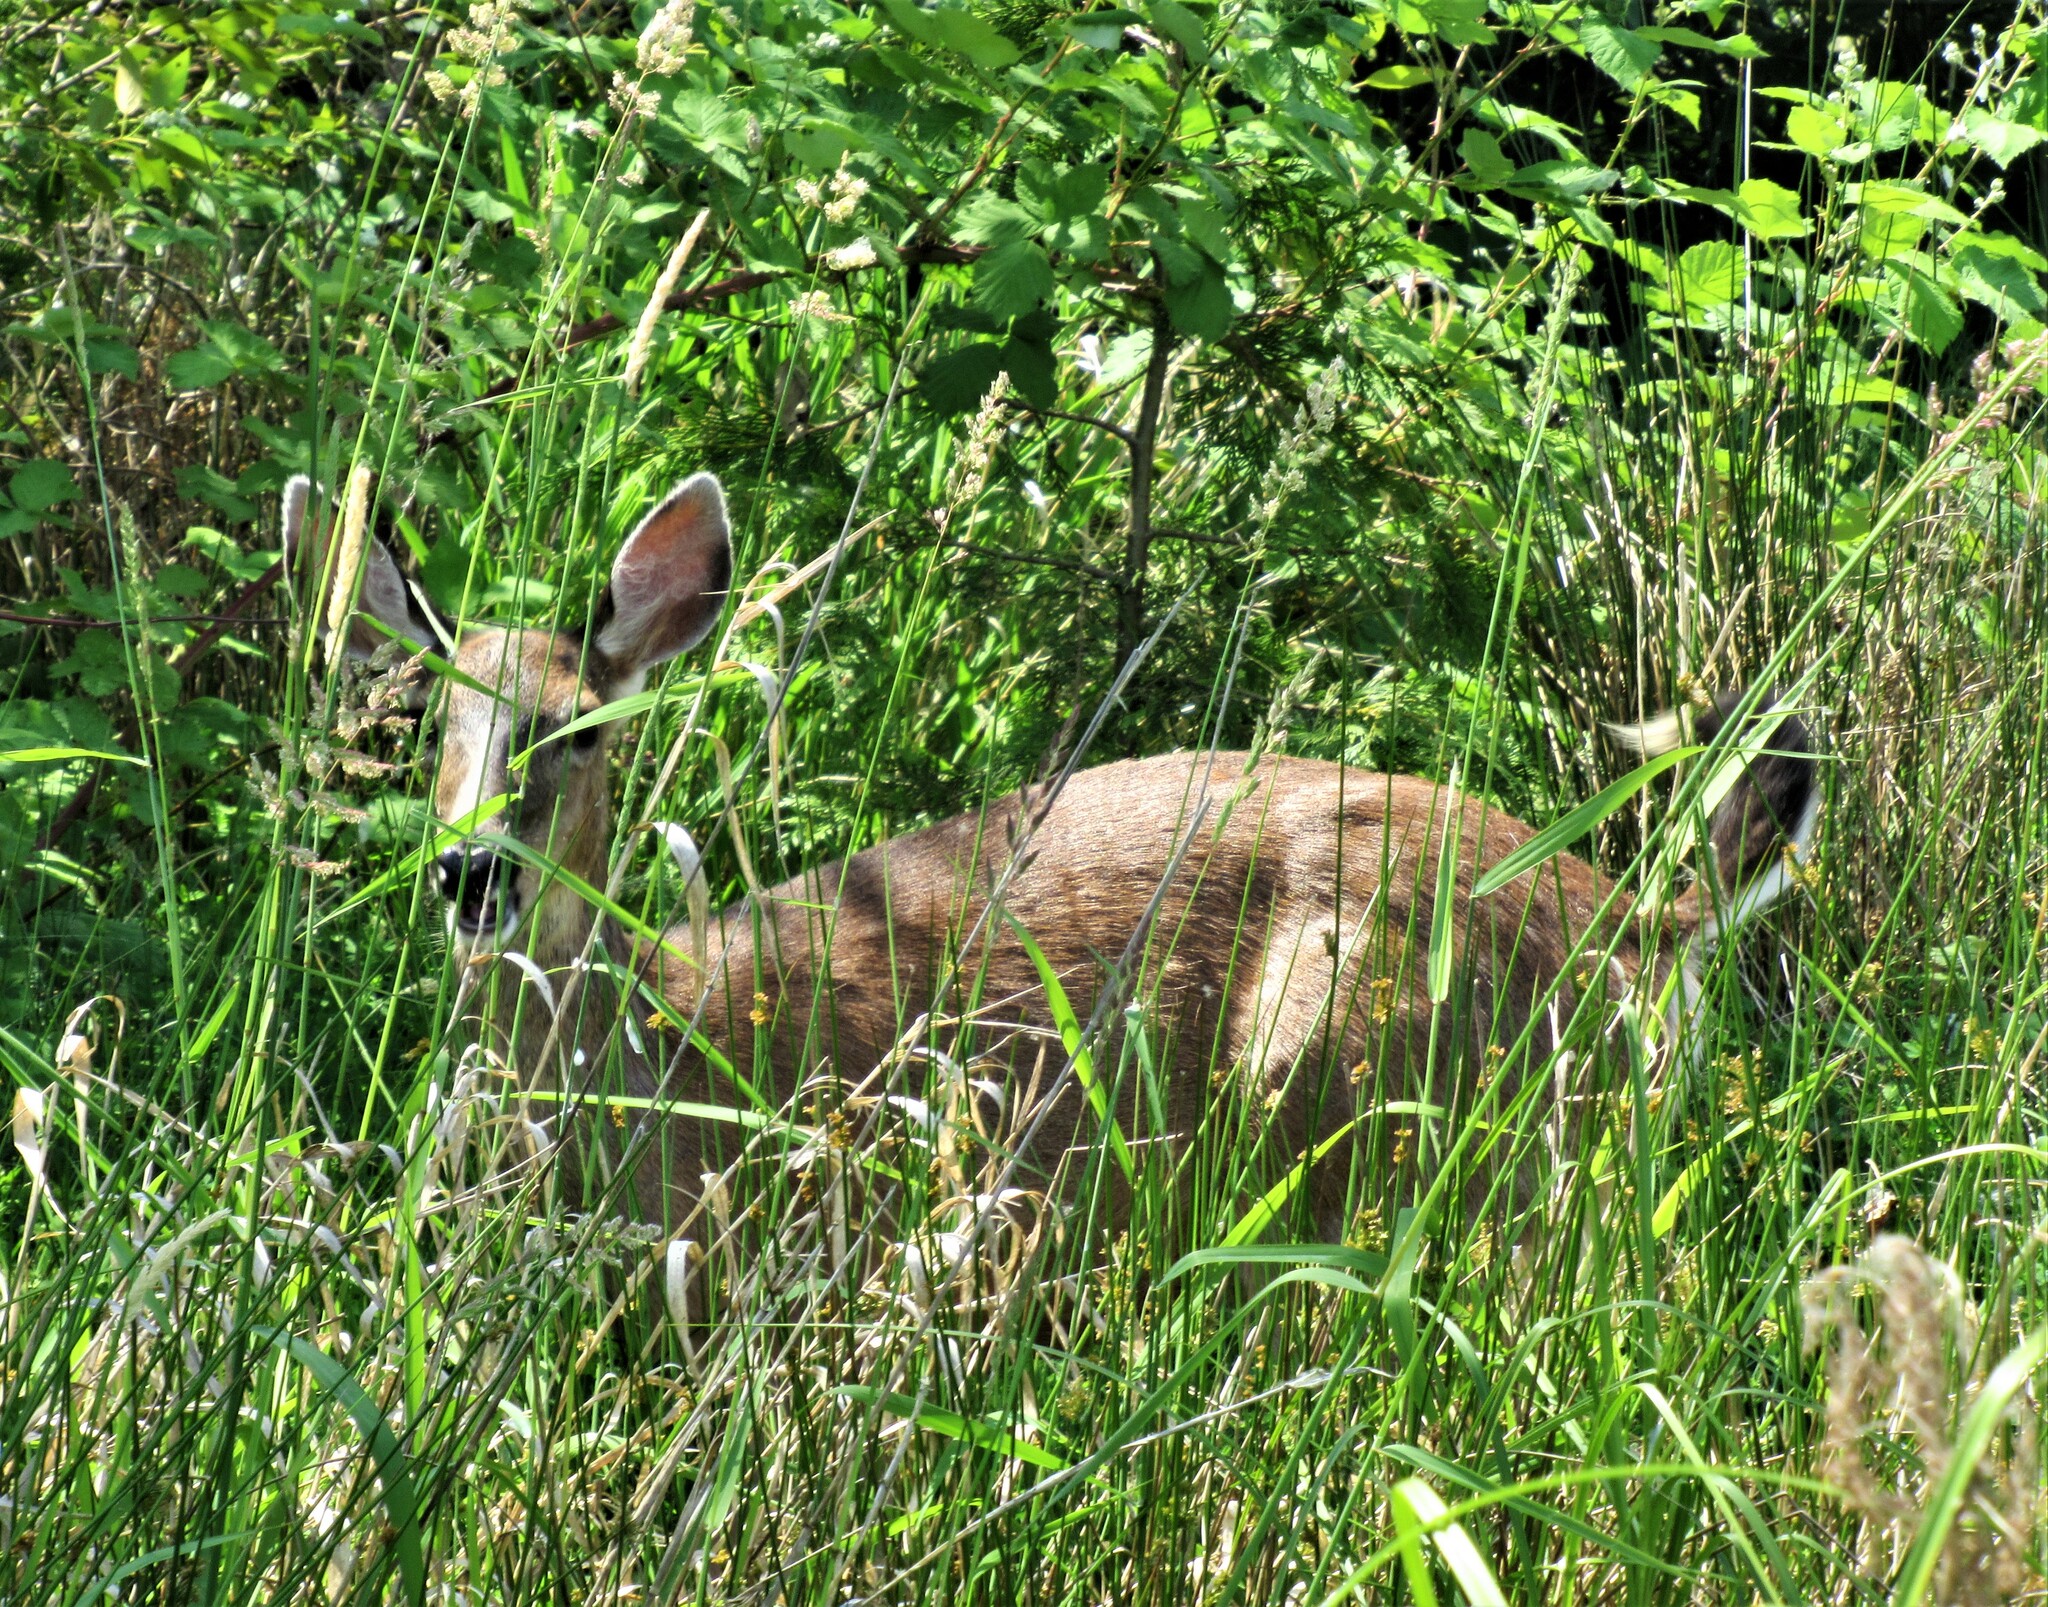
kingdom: Animalia
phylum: Chordata
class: Mammalia
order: Artiodactyla
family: Cervidae
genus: Odocoileus
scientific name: Odocoileus hemionus
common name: Mule deer
